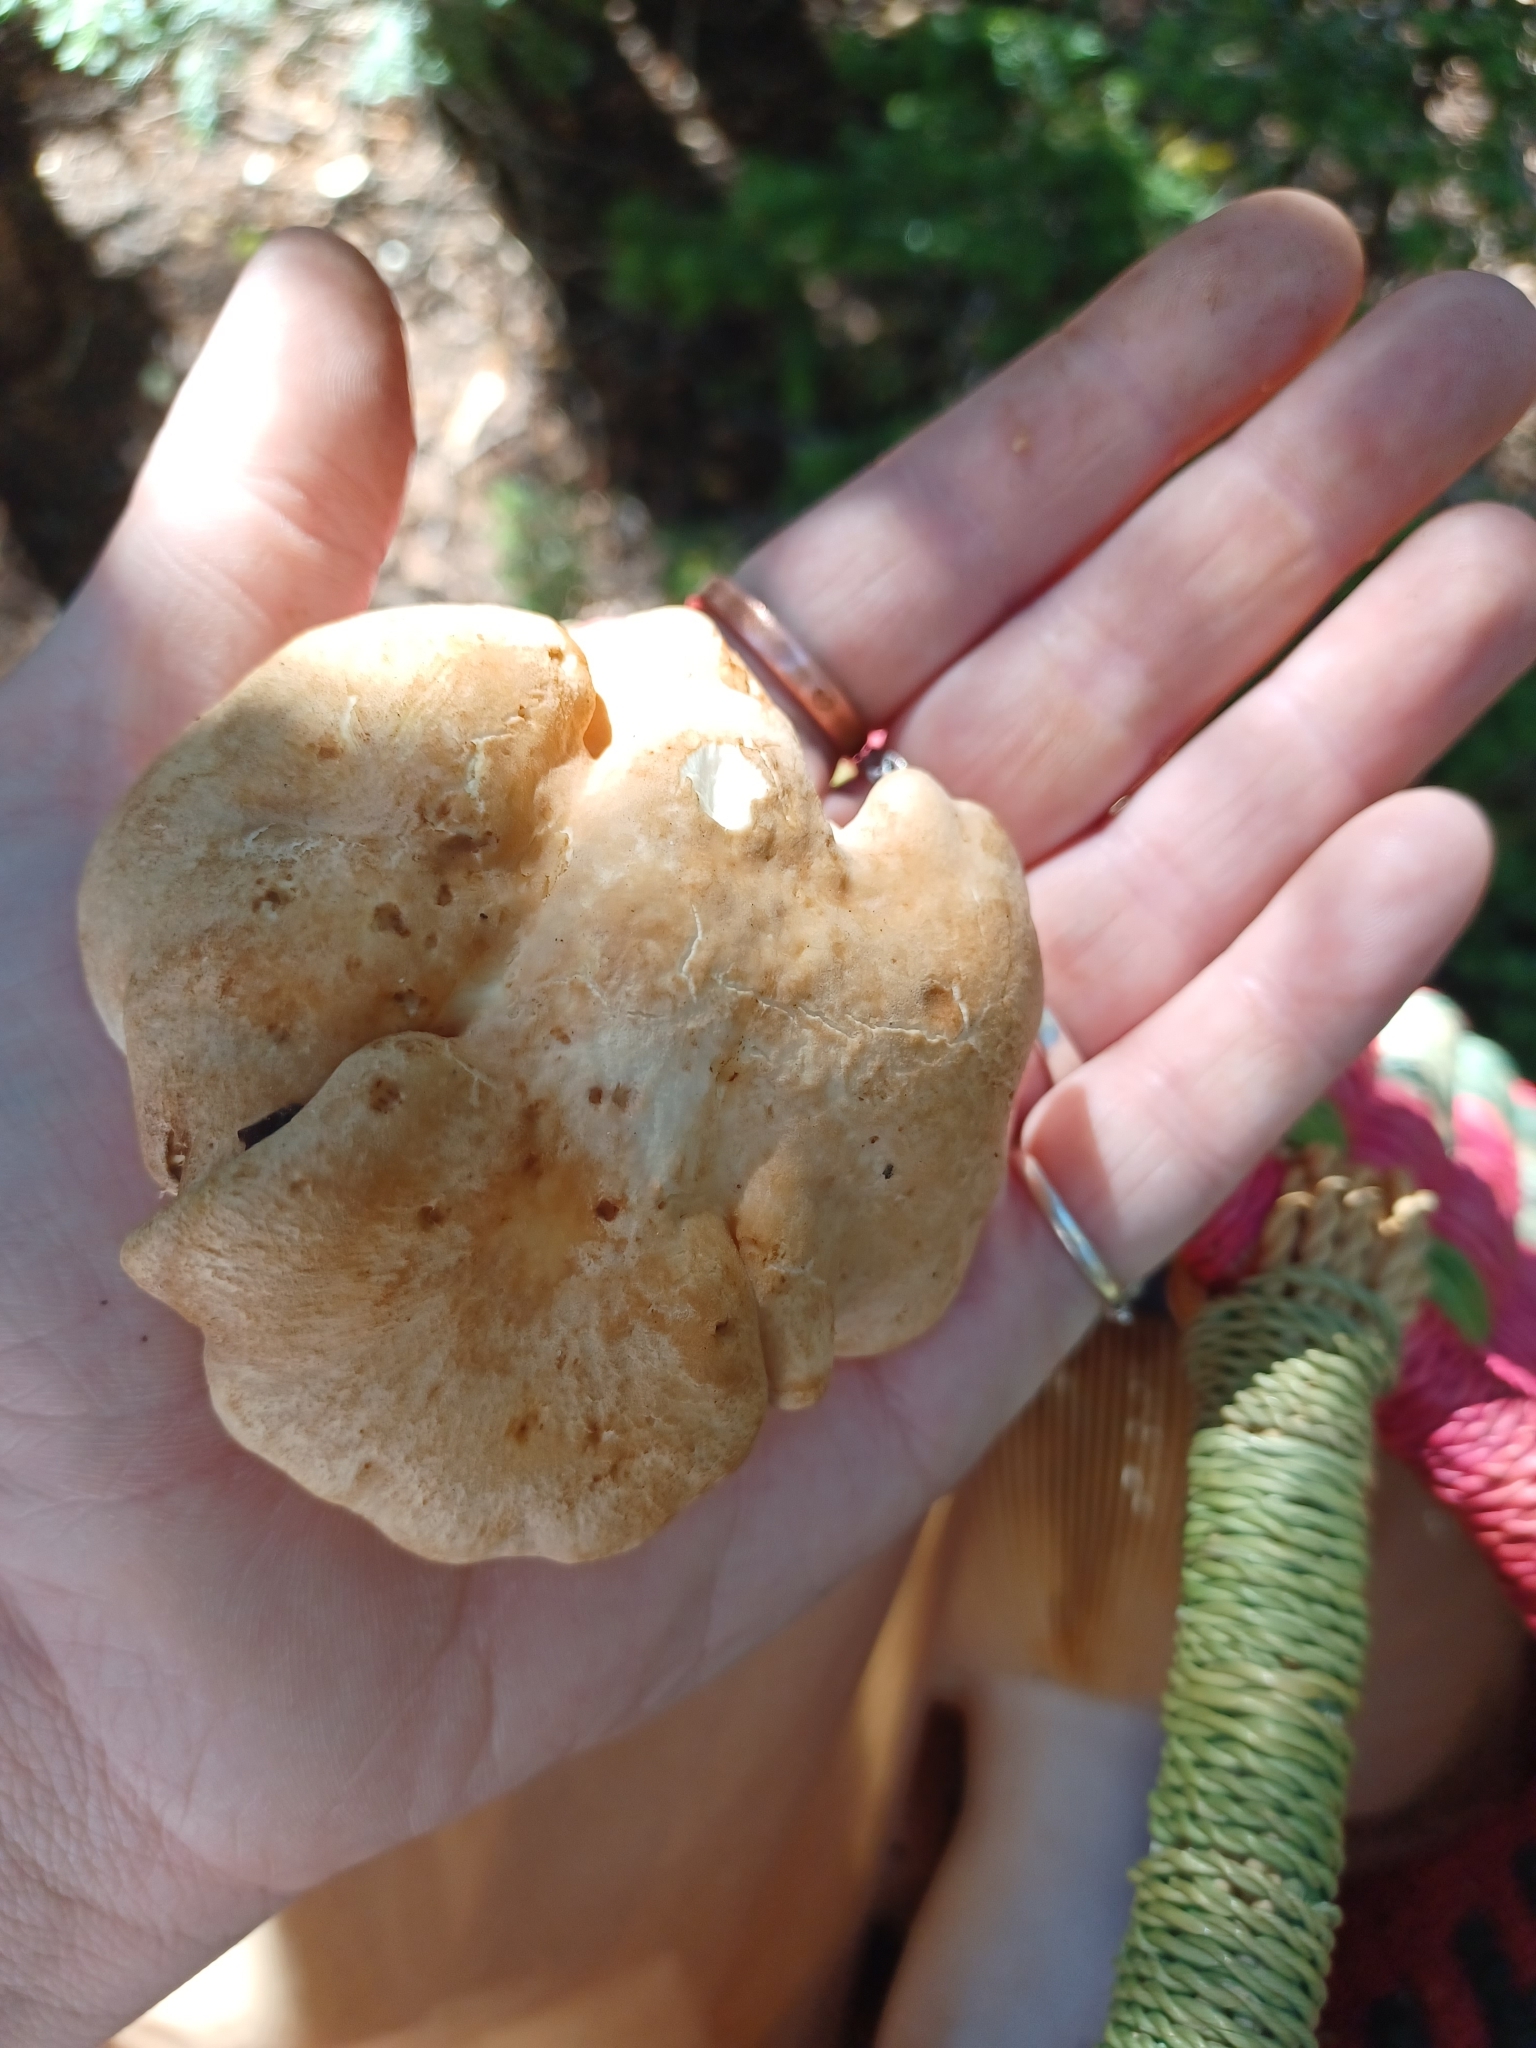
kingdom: Fungi
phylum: Basidiomycota
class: Agaricomycetes
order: Russulales
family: Albatrellaceae
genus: Albatrellopsis
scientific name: Albatrellopsis confluens
